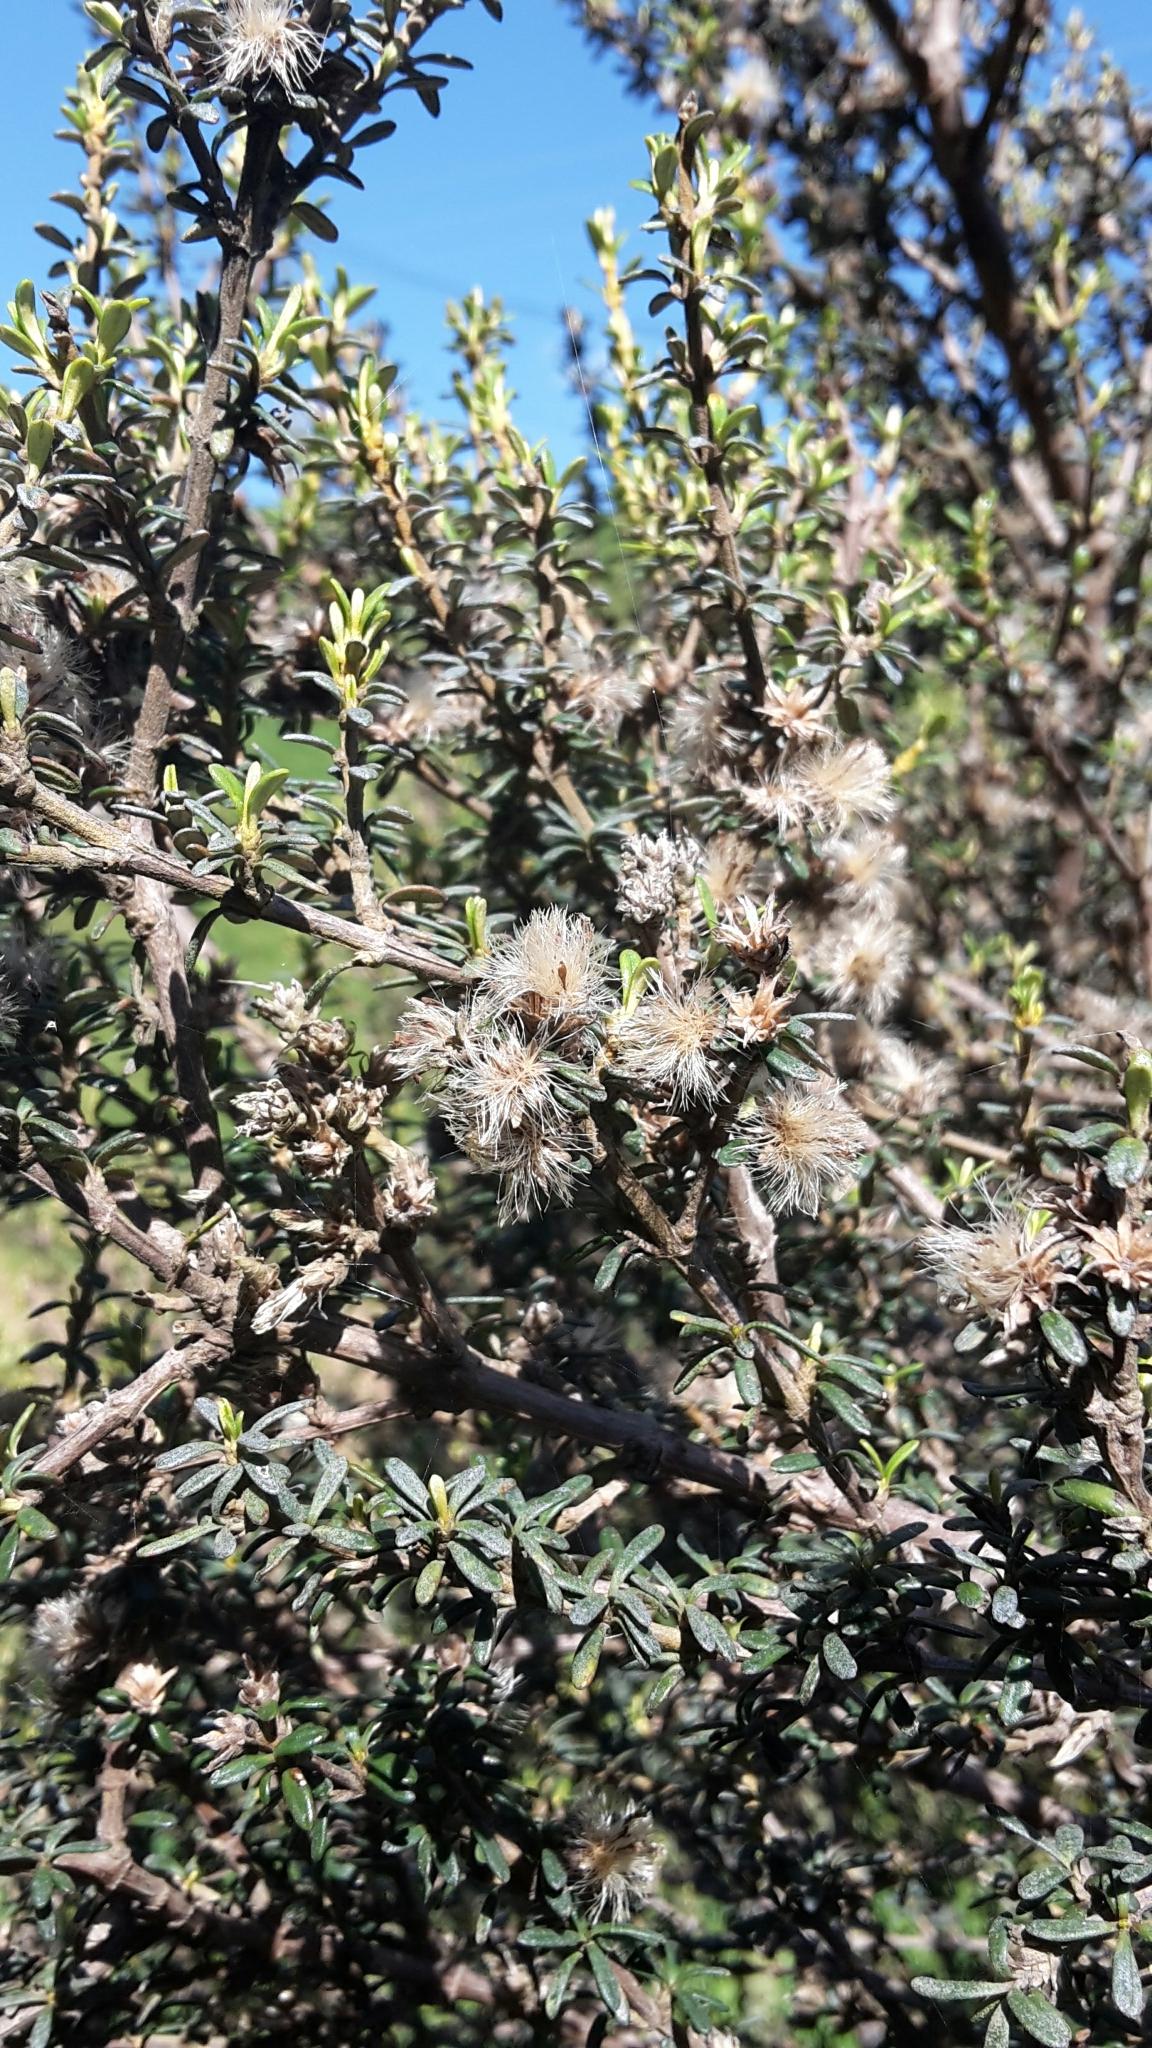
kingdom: Plantae
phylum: Tracheophyta
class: Magnoliopsida
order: Asterales
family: Asteraceae
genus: Olearia
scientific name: Olearia solandri
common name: Coastal daisybush
